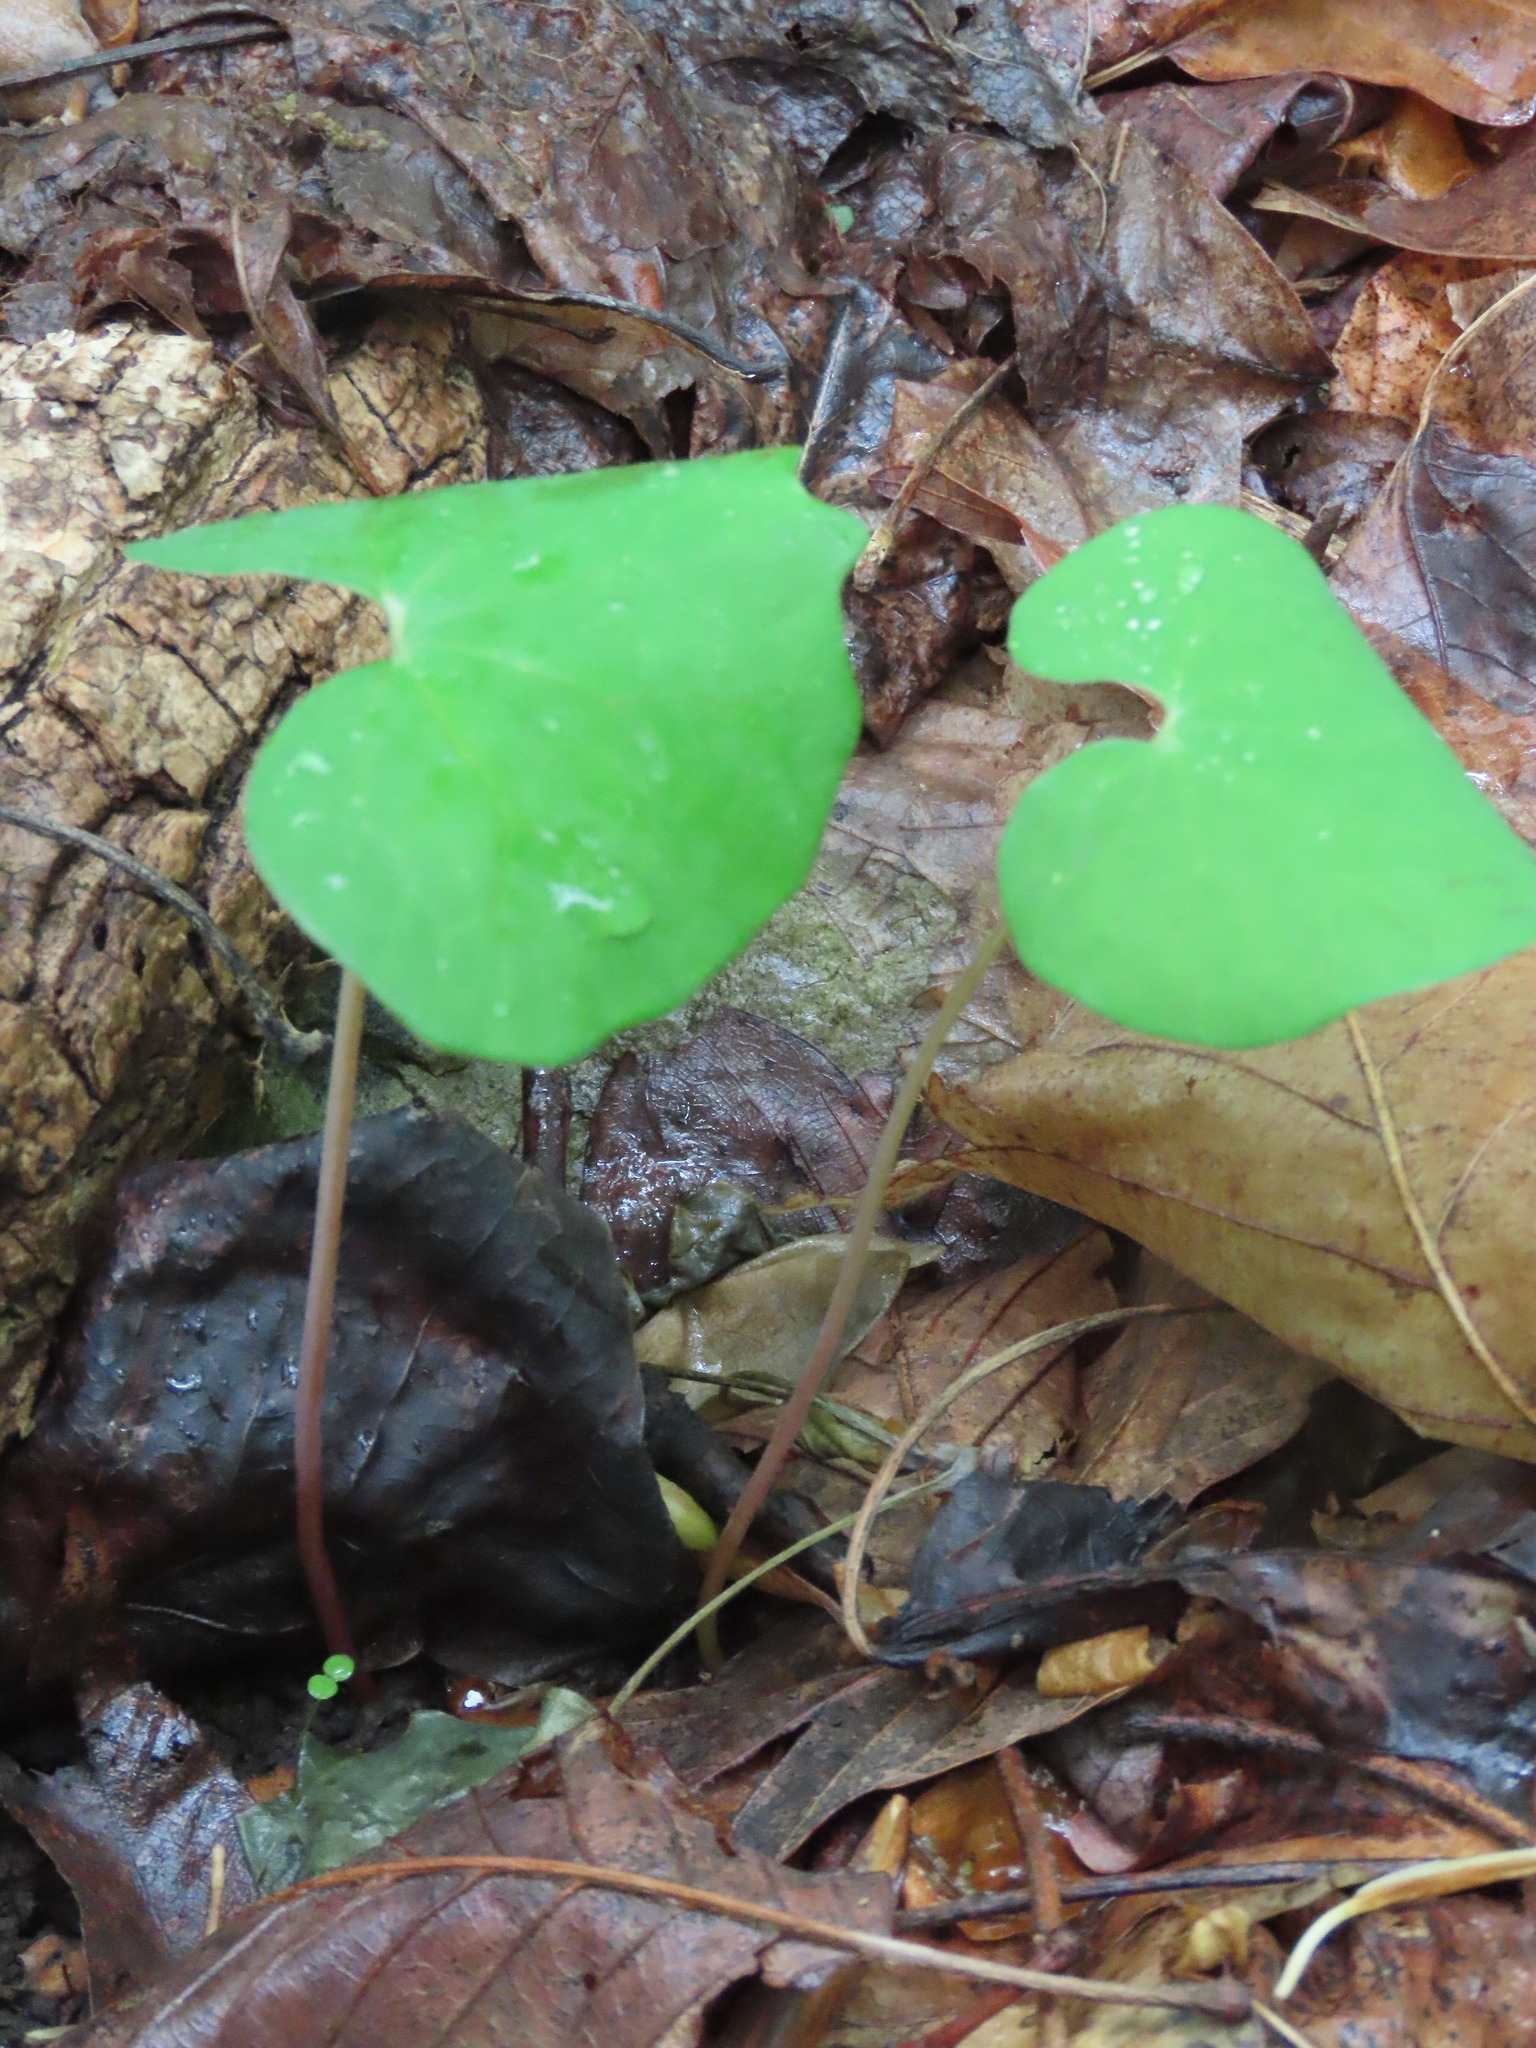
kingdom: Plantae
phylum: Tracheophyta
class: Magnoliopsida
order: Ranunculales
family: Papaveraceae
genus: Sanguinaria
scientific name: Sanguinaria canadensis
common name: Bloodroot
